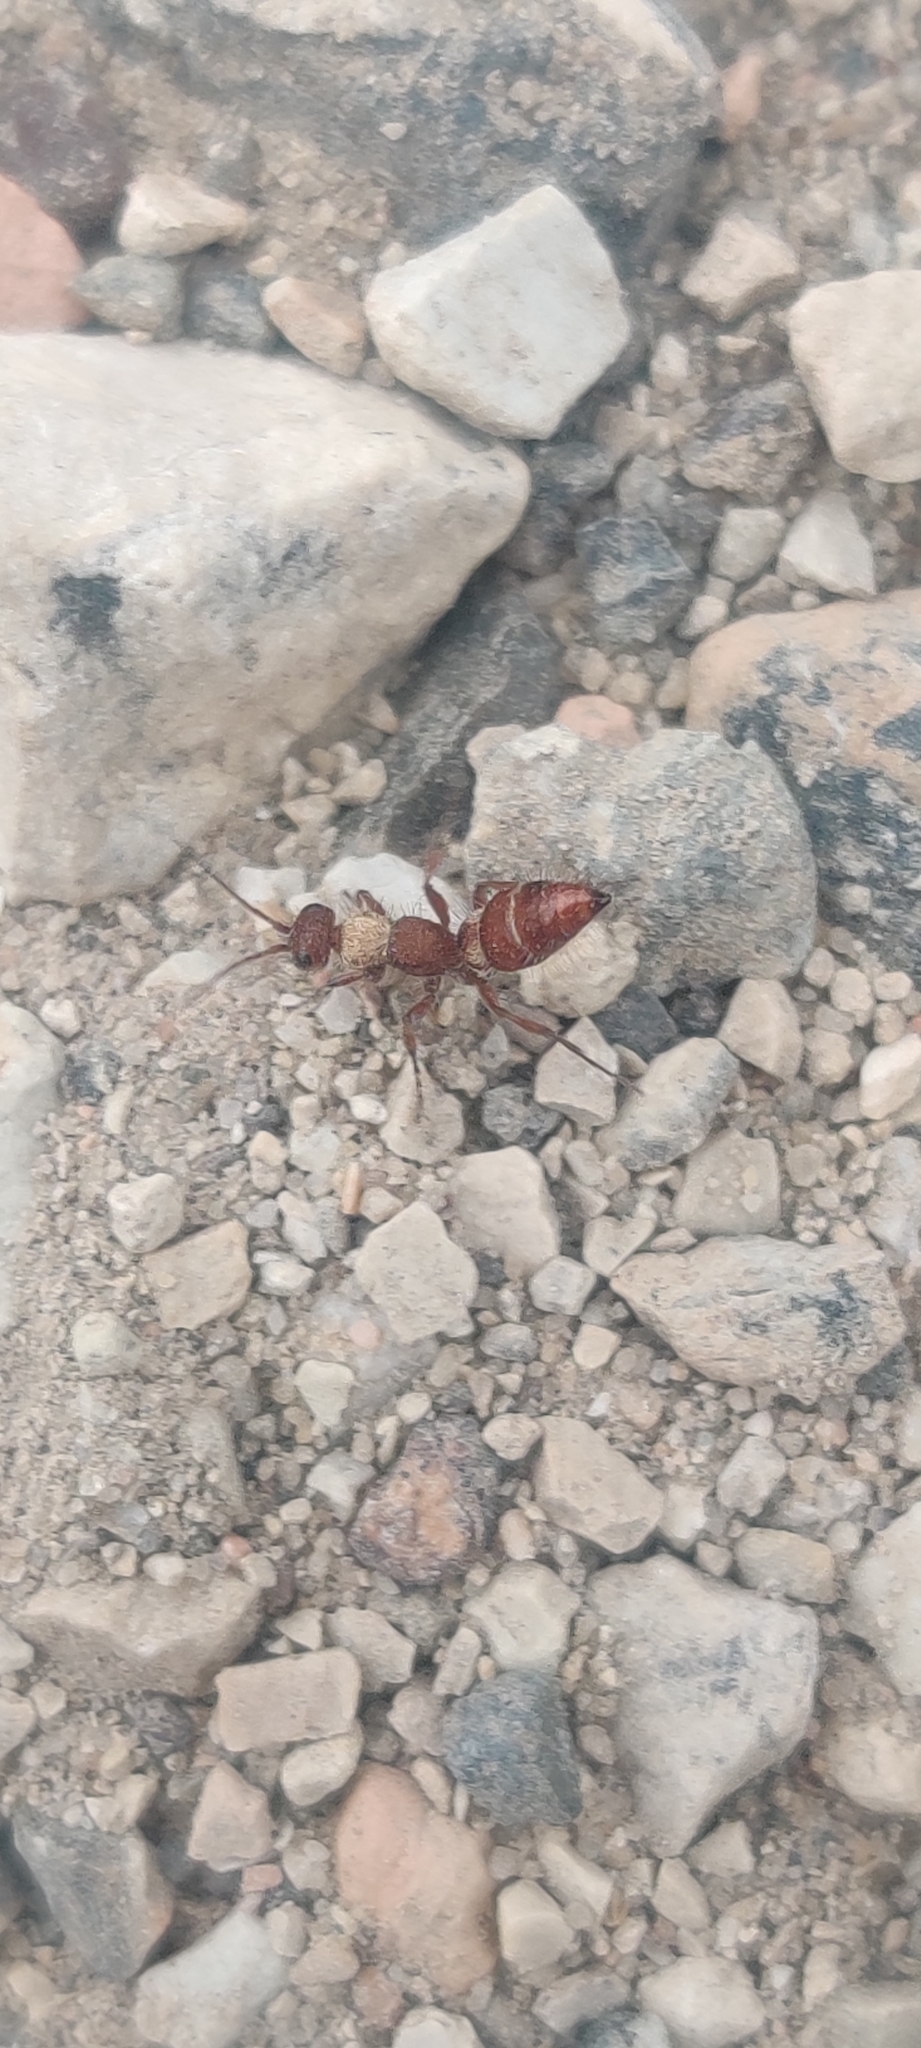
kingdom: Animalia
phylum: Arthropoda
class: Insecta
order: Hymenoptera
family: Mutillidae
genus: Typhoctes
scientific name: Typhoctes
